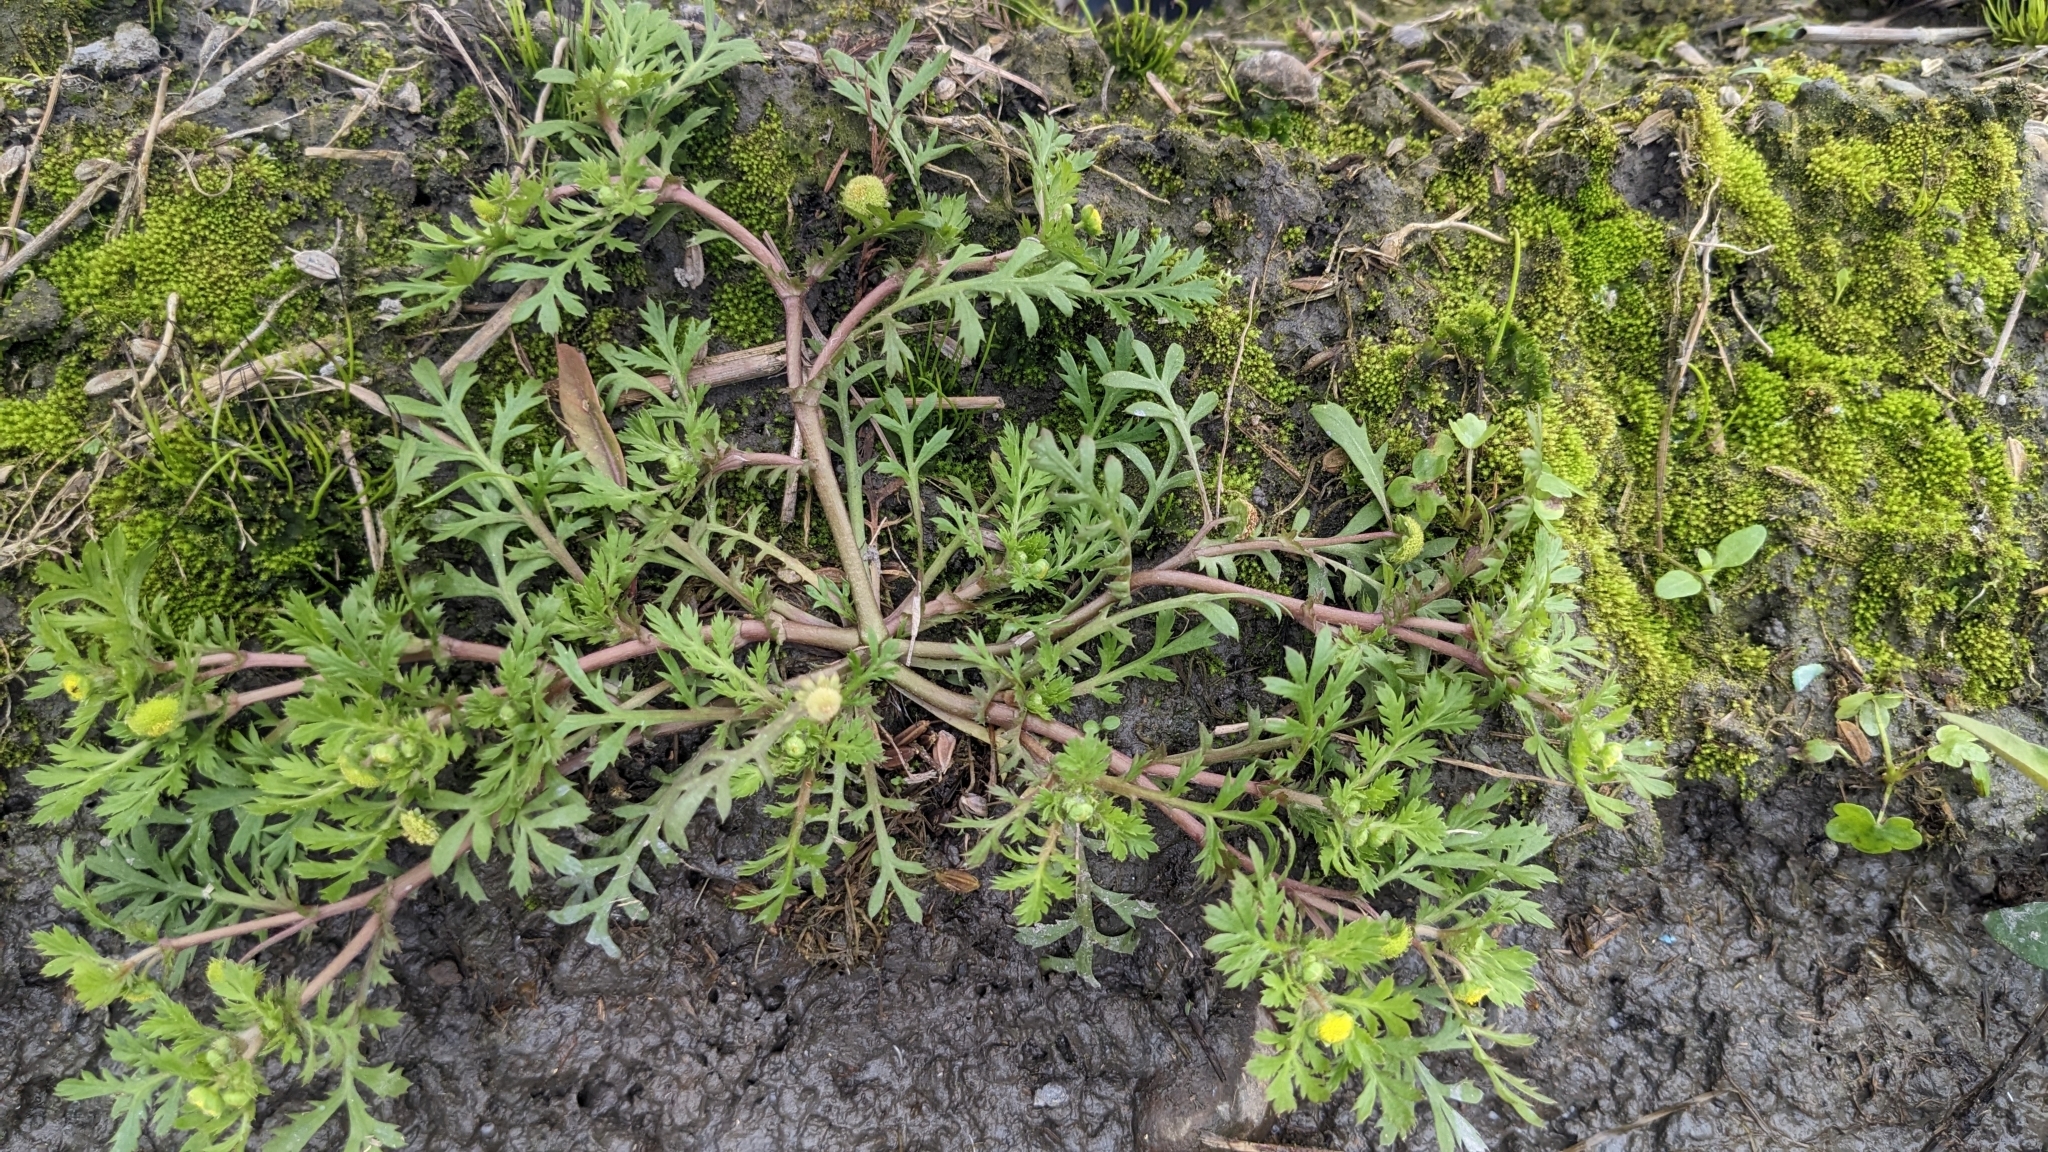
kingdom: Plantae
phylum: Tracheophyta
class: Magnoliopsida
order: Asterales
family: Asteraceae
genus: Cotula
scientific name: Cotula hemisphaerica
